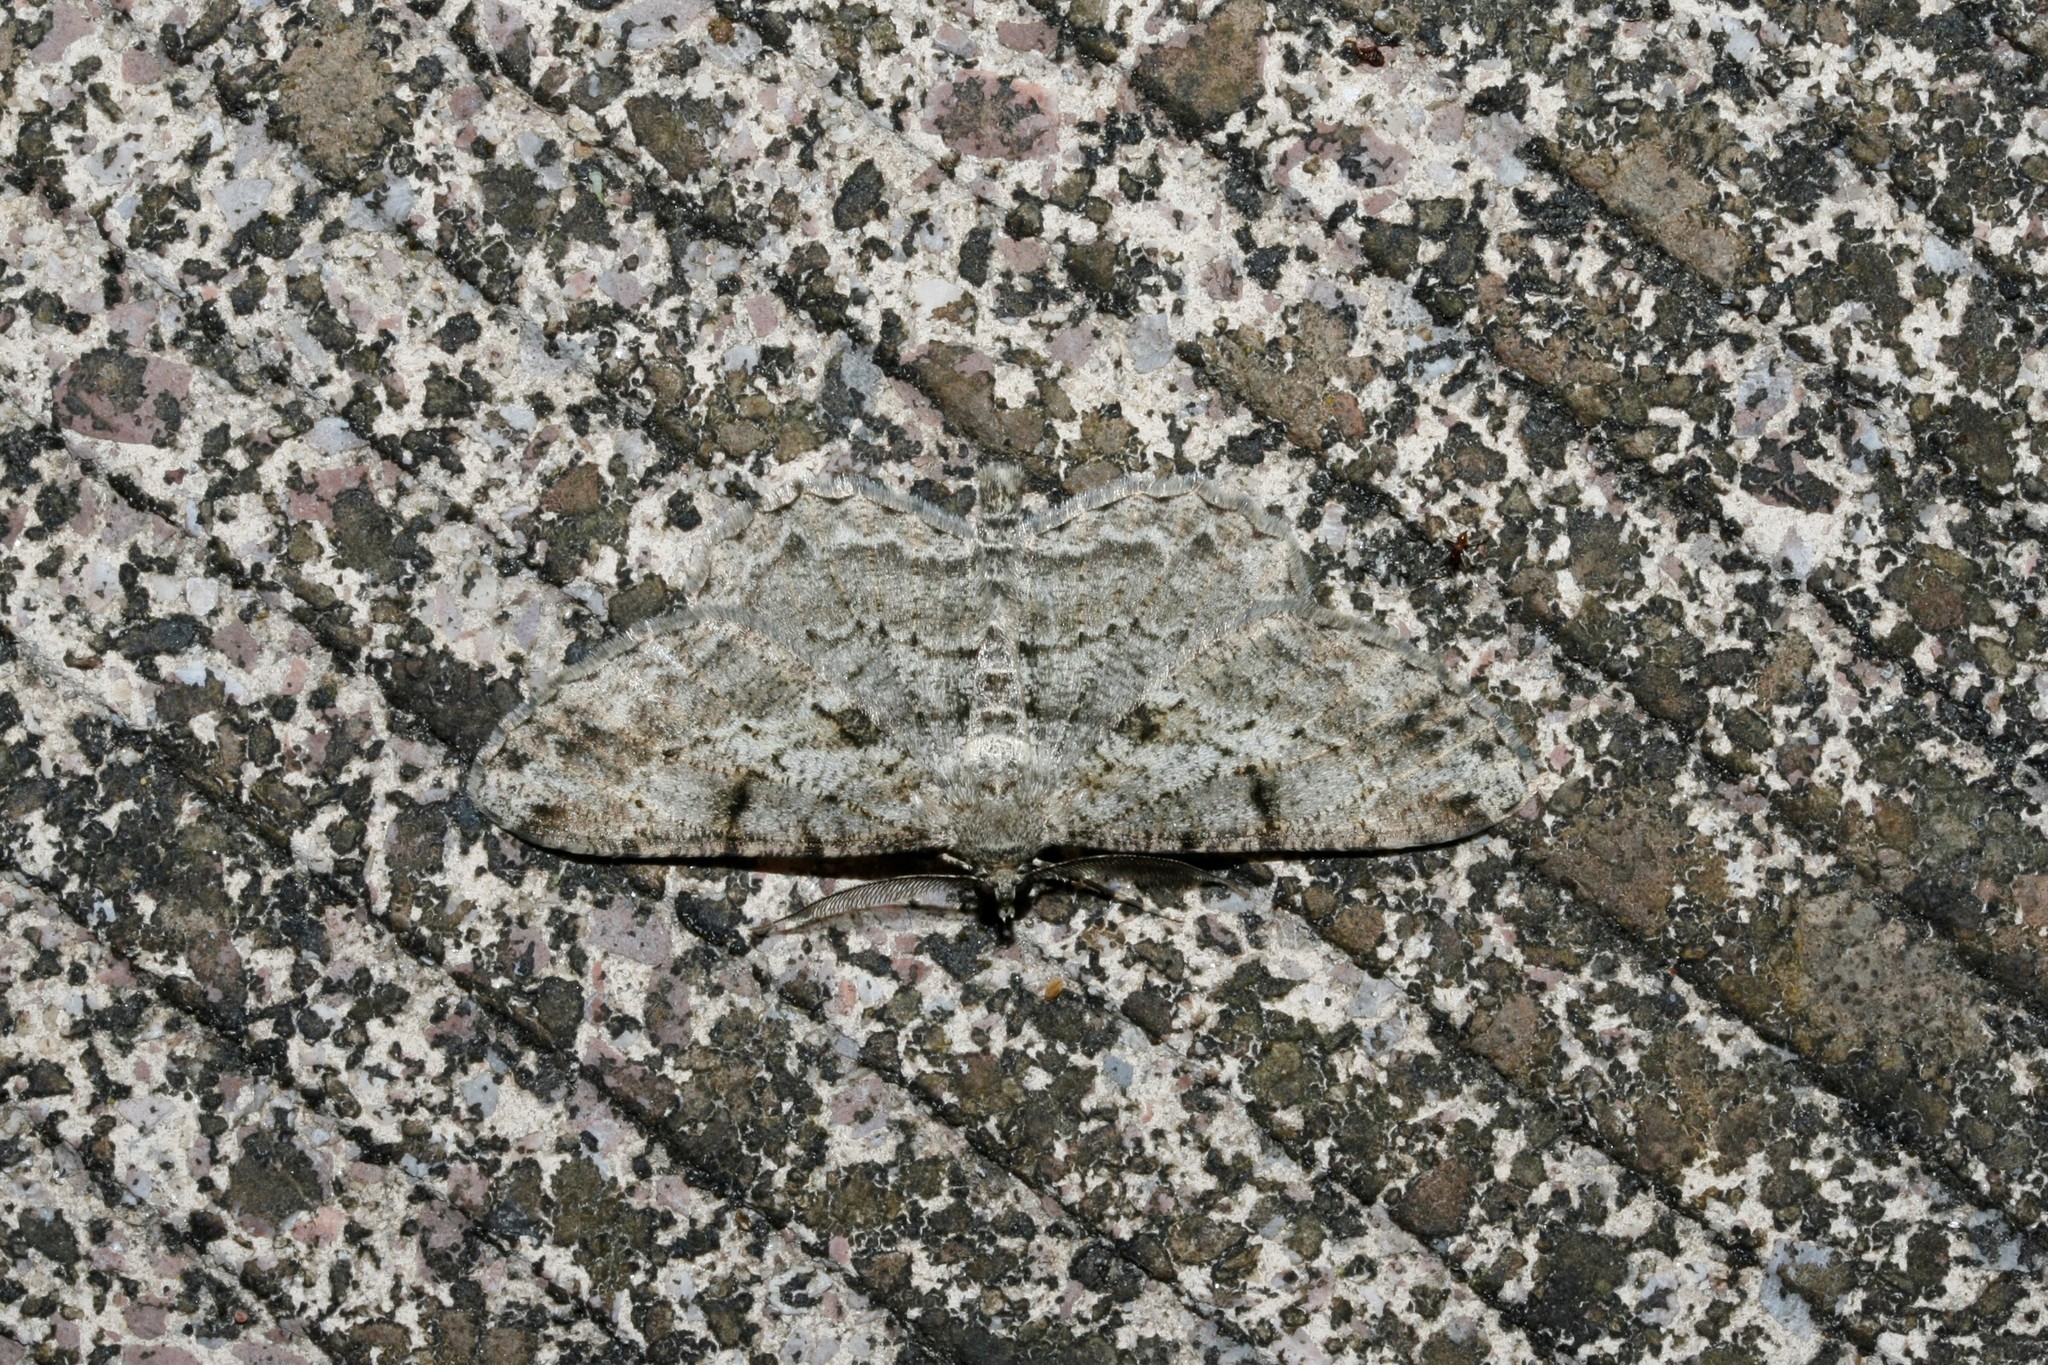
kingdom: Animalia
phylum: Arthropoda
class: Insecta
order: Lepidoptera
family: Geometridae
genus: Peribatodes
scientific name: Peribatodes rhomboidaria
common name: Willow beauty
